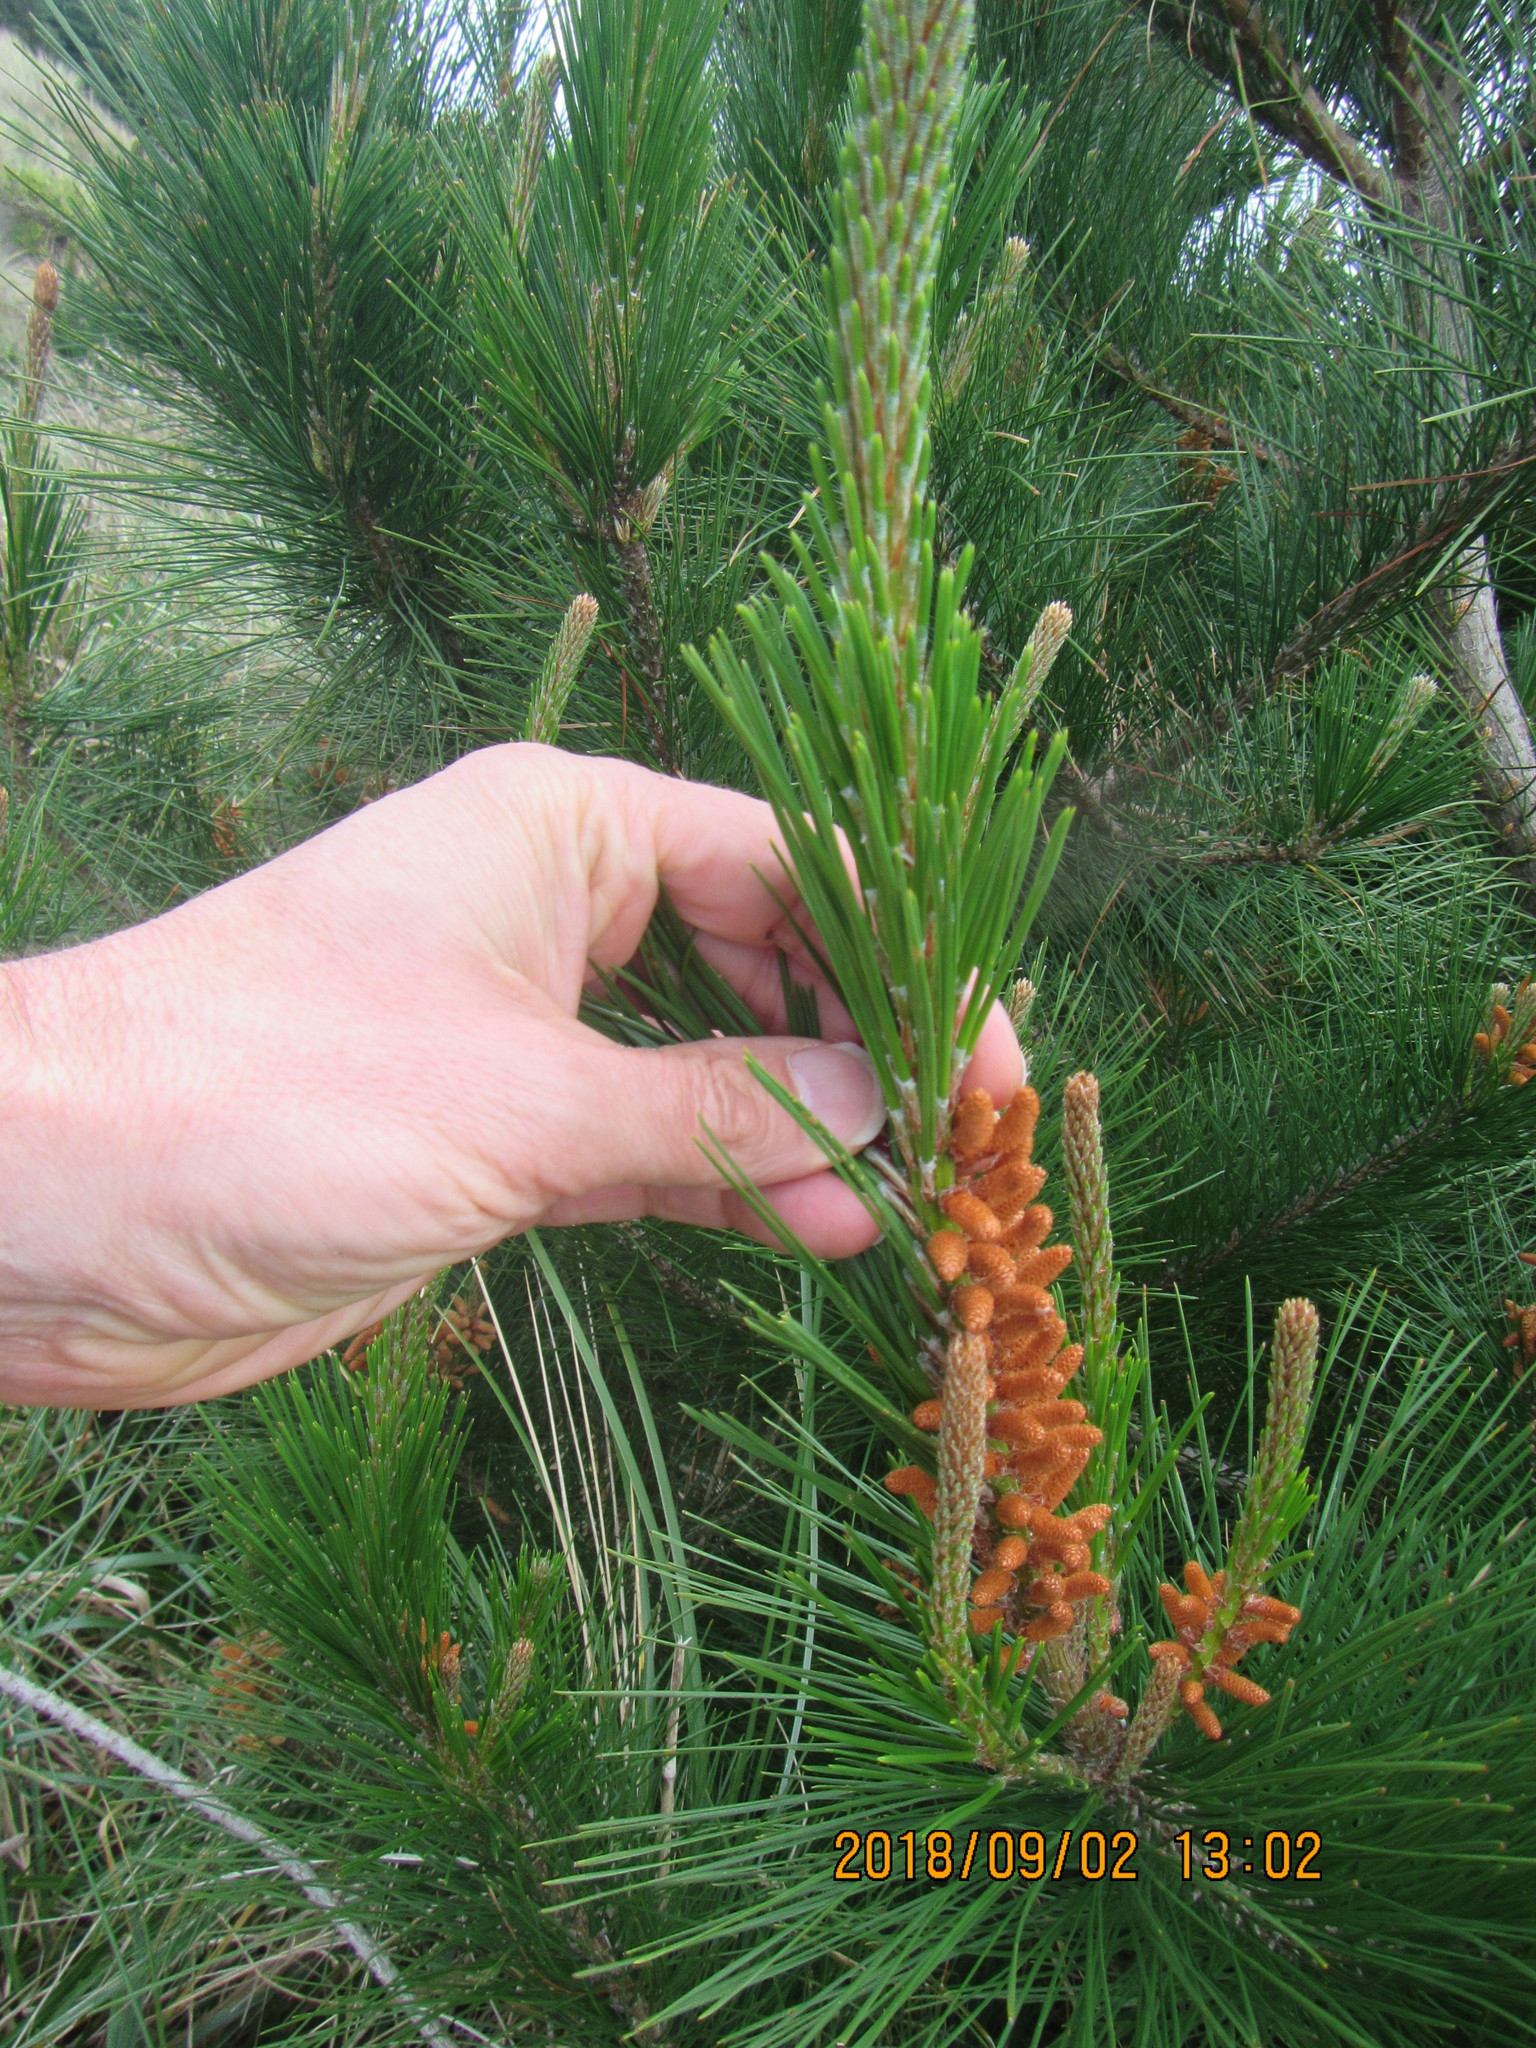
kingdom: Plantae
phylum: Tracheophyta
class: Pinopsida
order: Pinales
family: Pinaceae
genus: Pinus
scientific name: Pinus radiata
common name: Monterey pine
